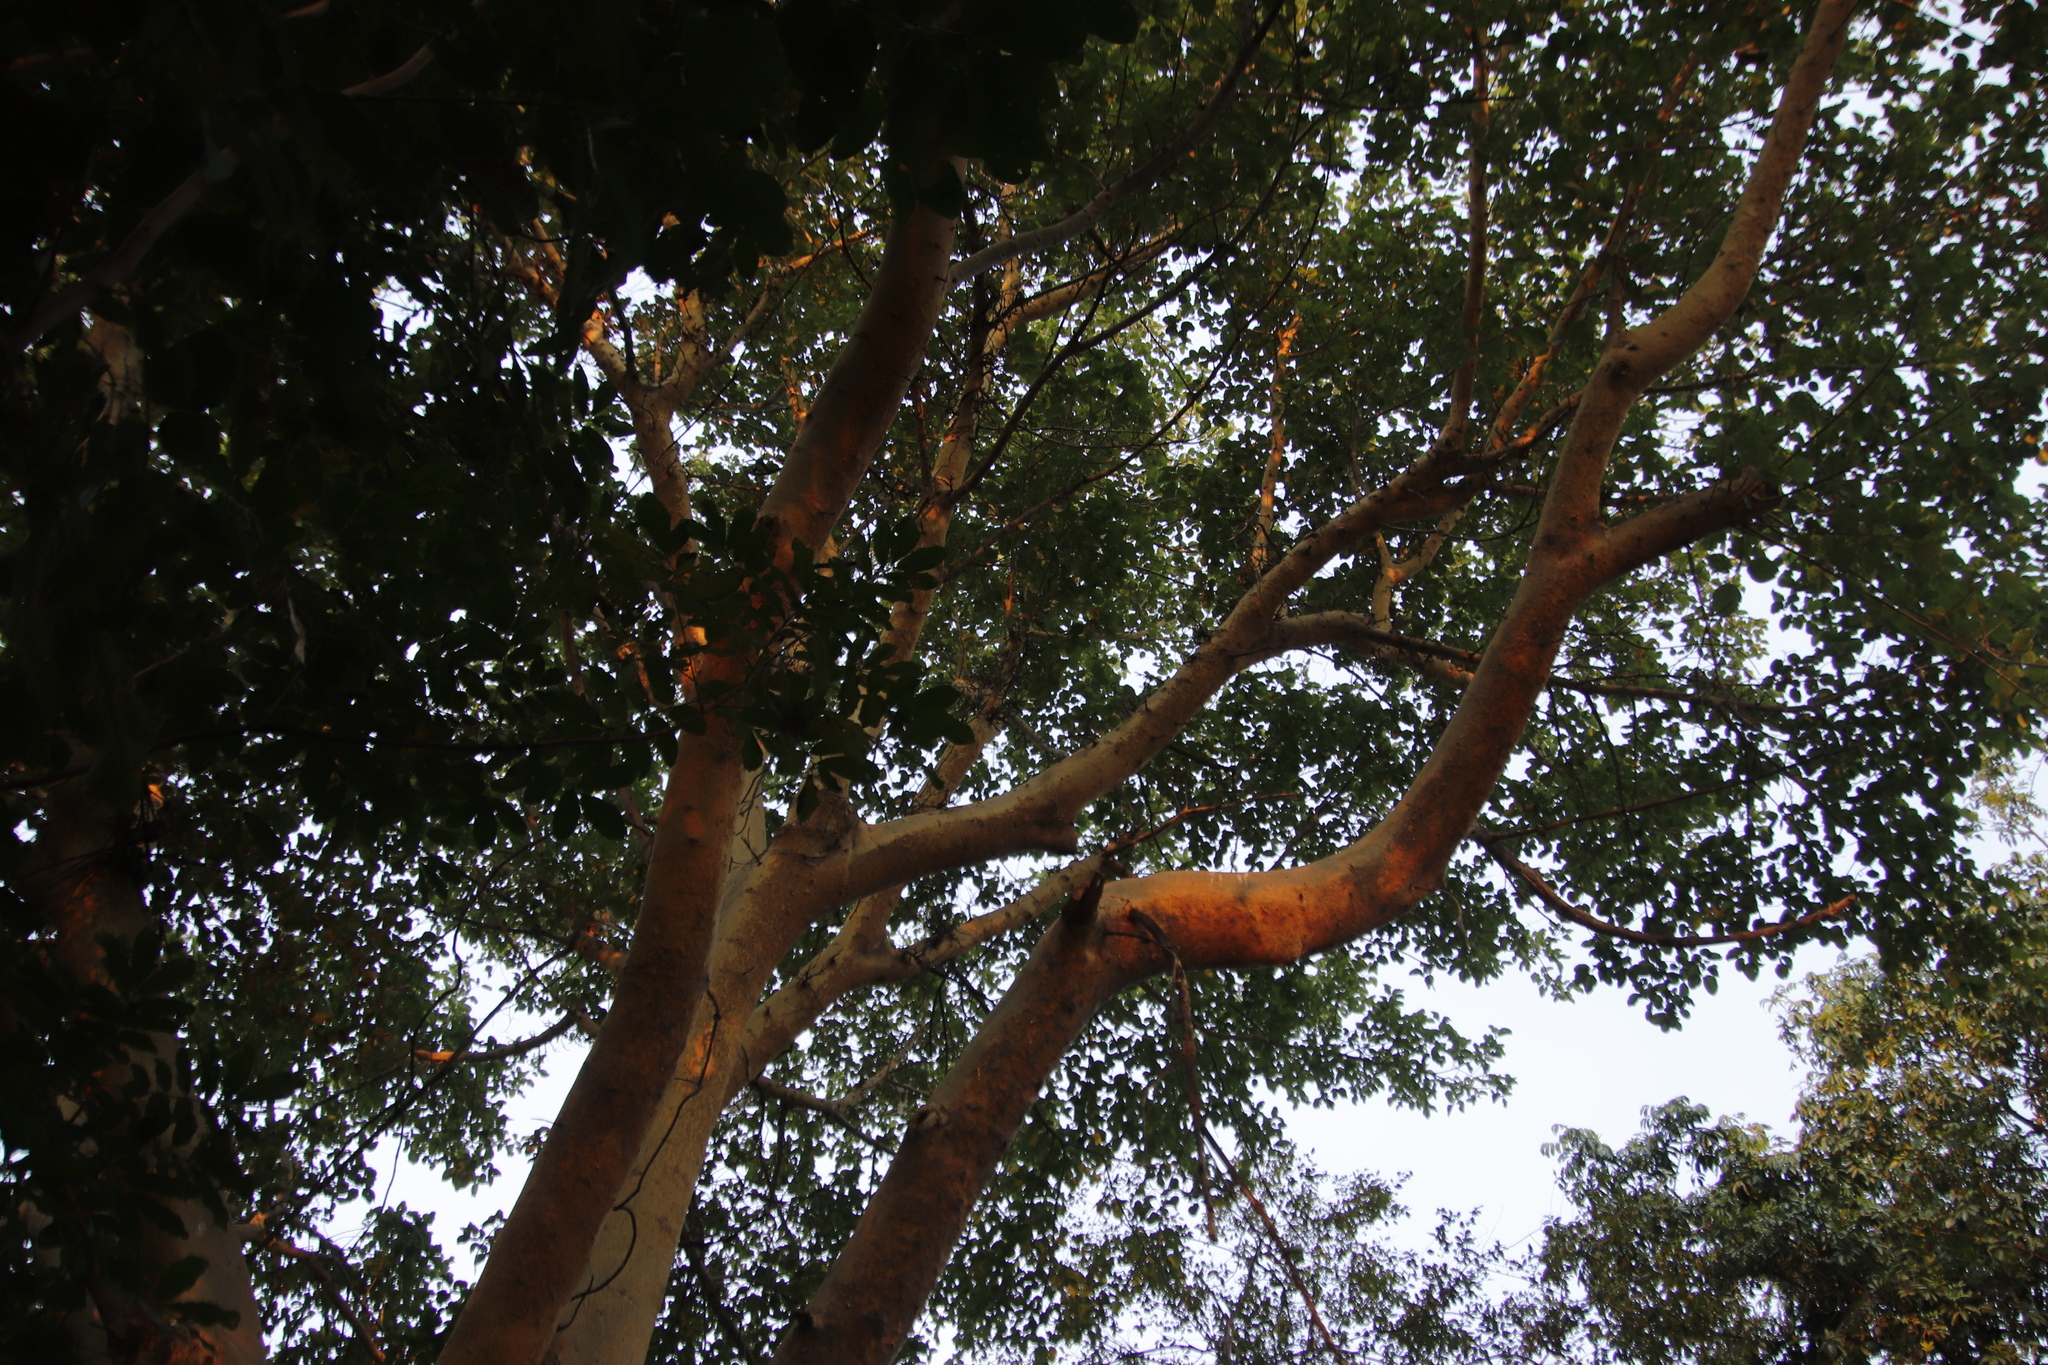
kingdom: Plantae
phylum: Tracheophyta
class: Magnoliopsida
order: Rosales
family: Moraceae
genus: Ficus
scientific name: Ficus sycomorus
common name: Sycomore
